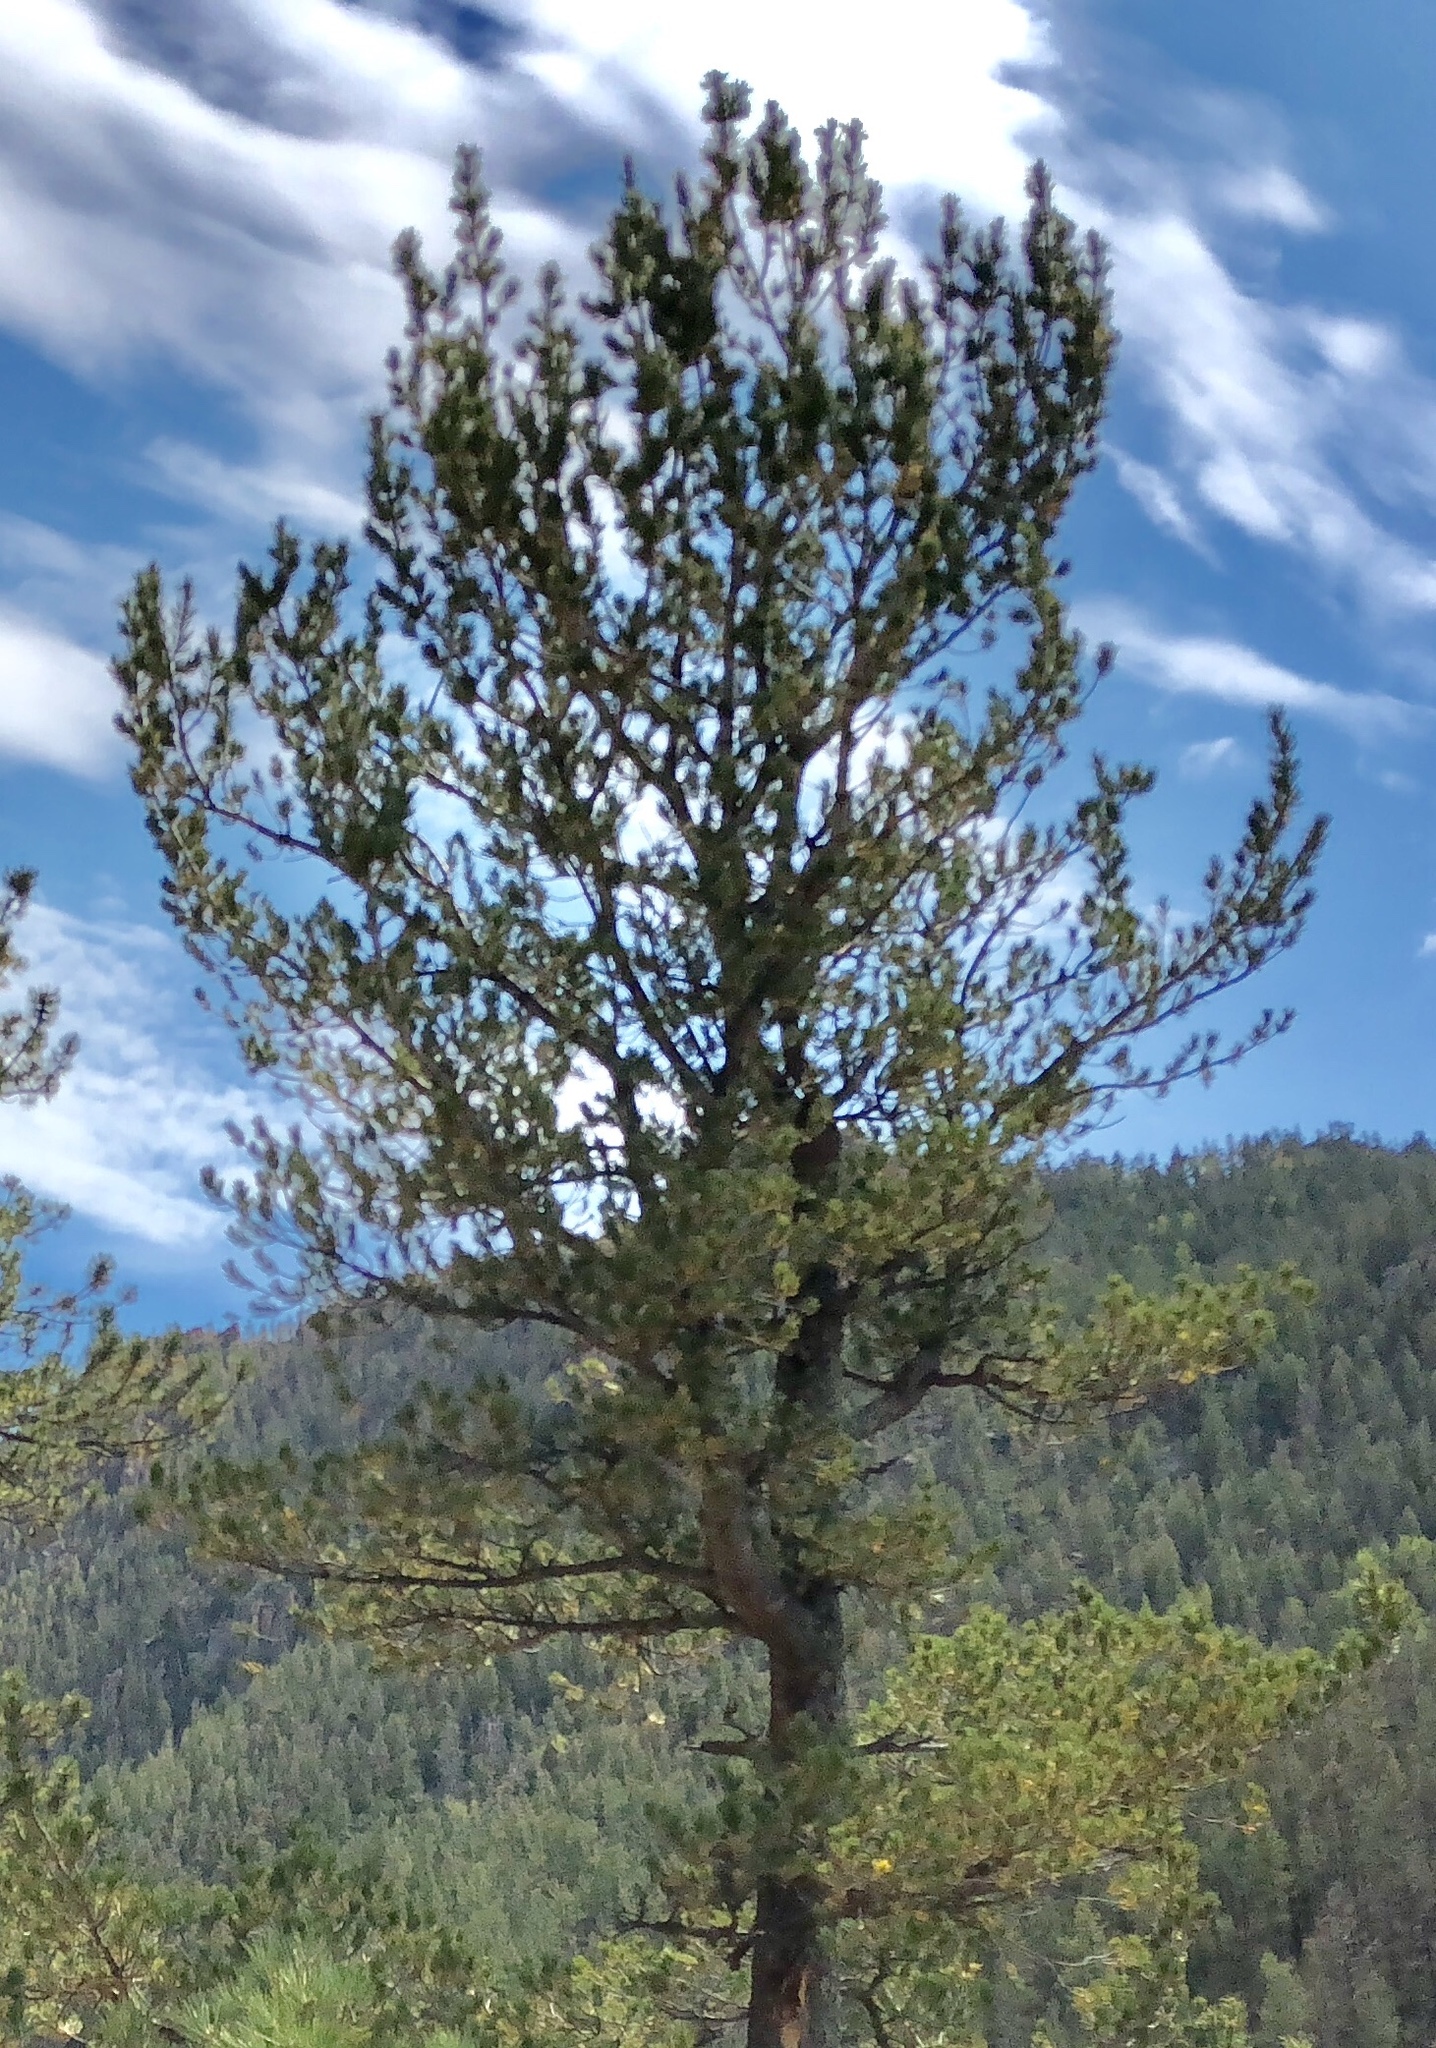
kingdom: Plantae
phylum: Tracheophyta
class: Pinopsida
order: Pinales
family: Pinaceae
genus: Pinus
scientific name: Pinus flexilis
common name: Limber pine
